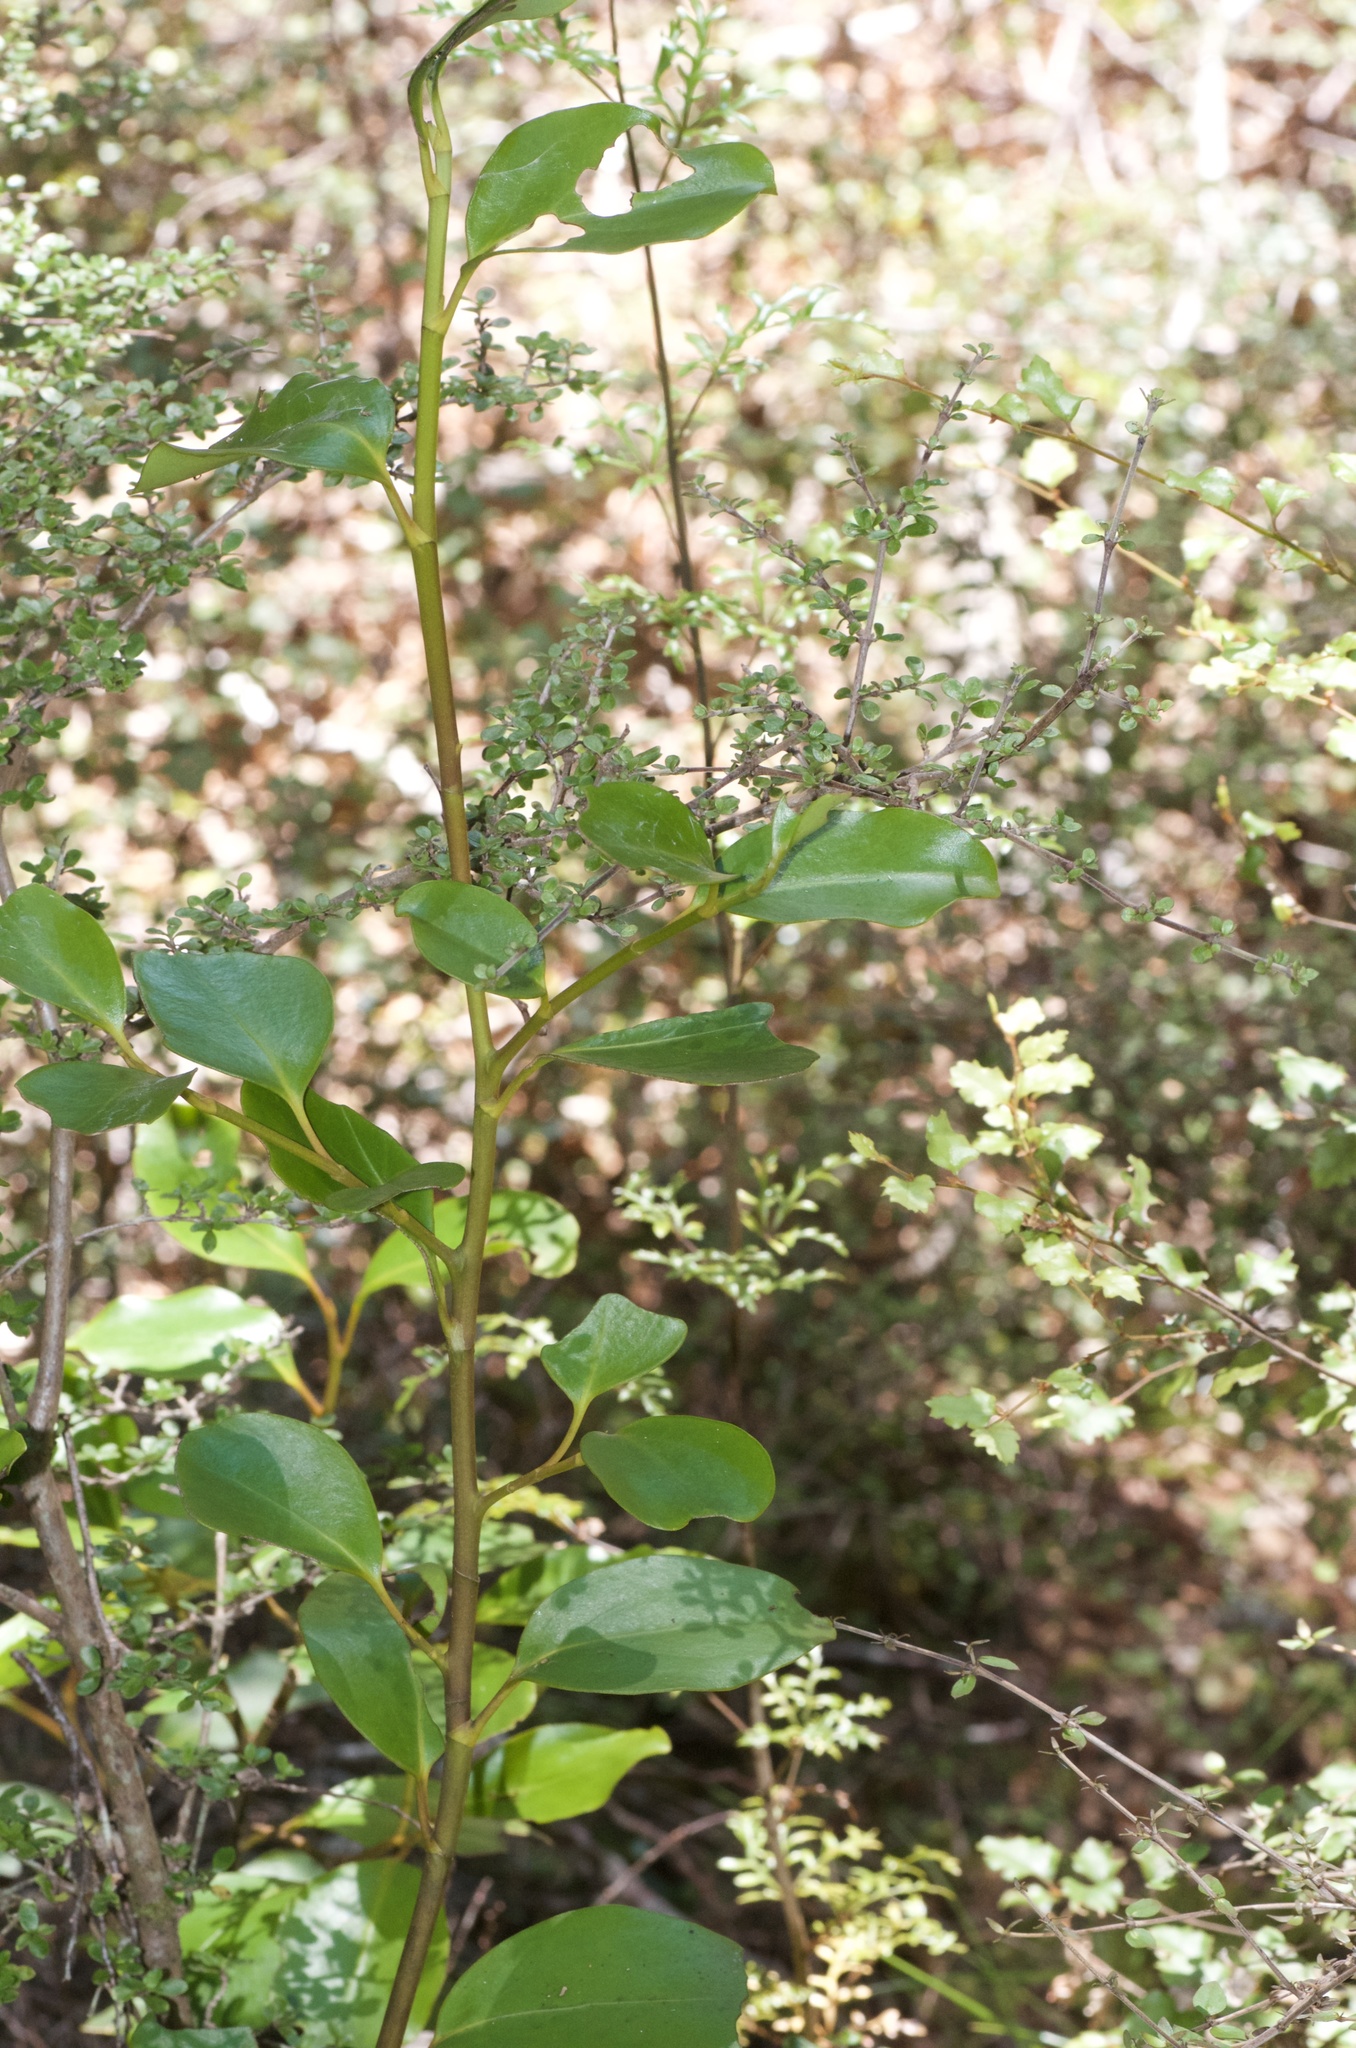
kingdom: Plantae
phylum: Tracheophyta
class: Magnoliopsida
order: Apiales
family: Griseliniaceae
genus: Griselinia
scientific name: Griselinia littoralis
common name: New zealand broadleaf
